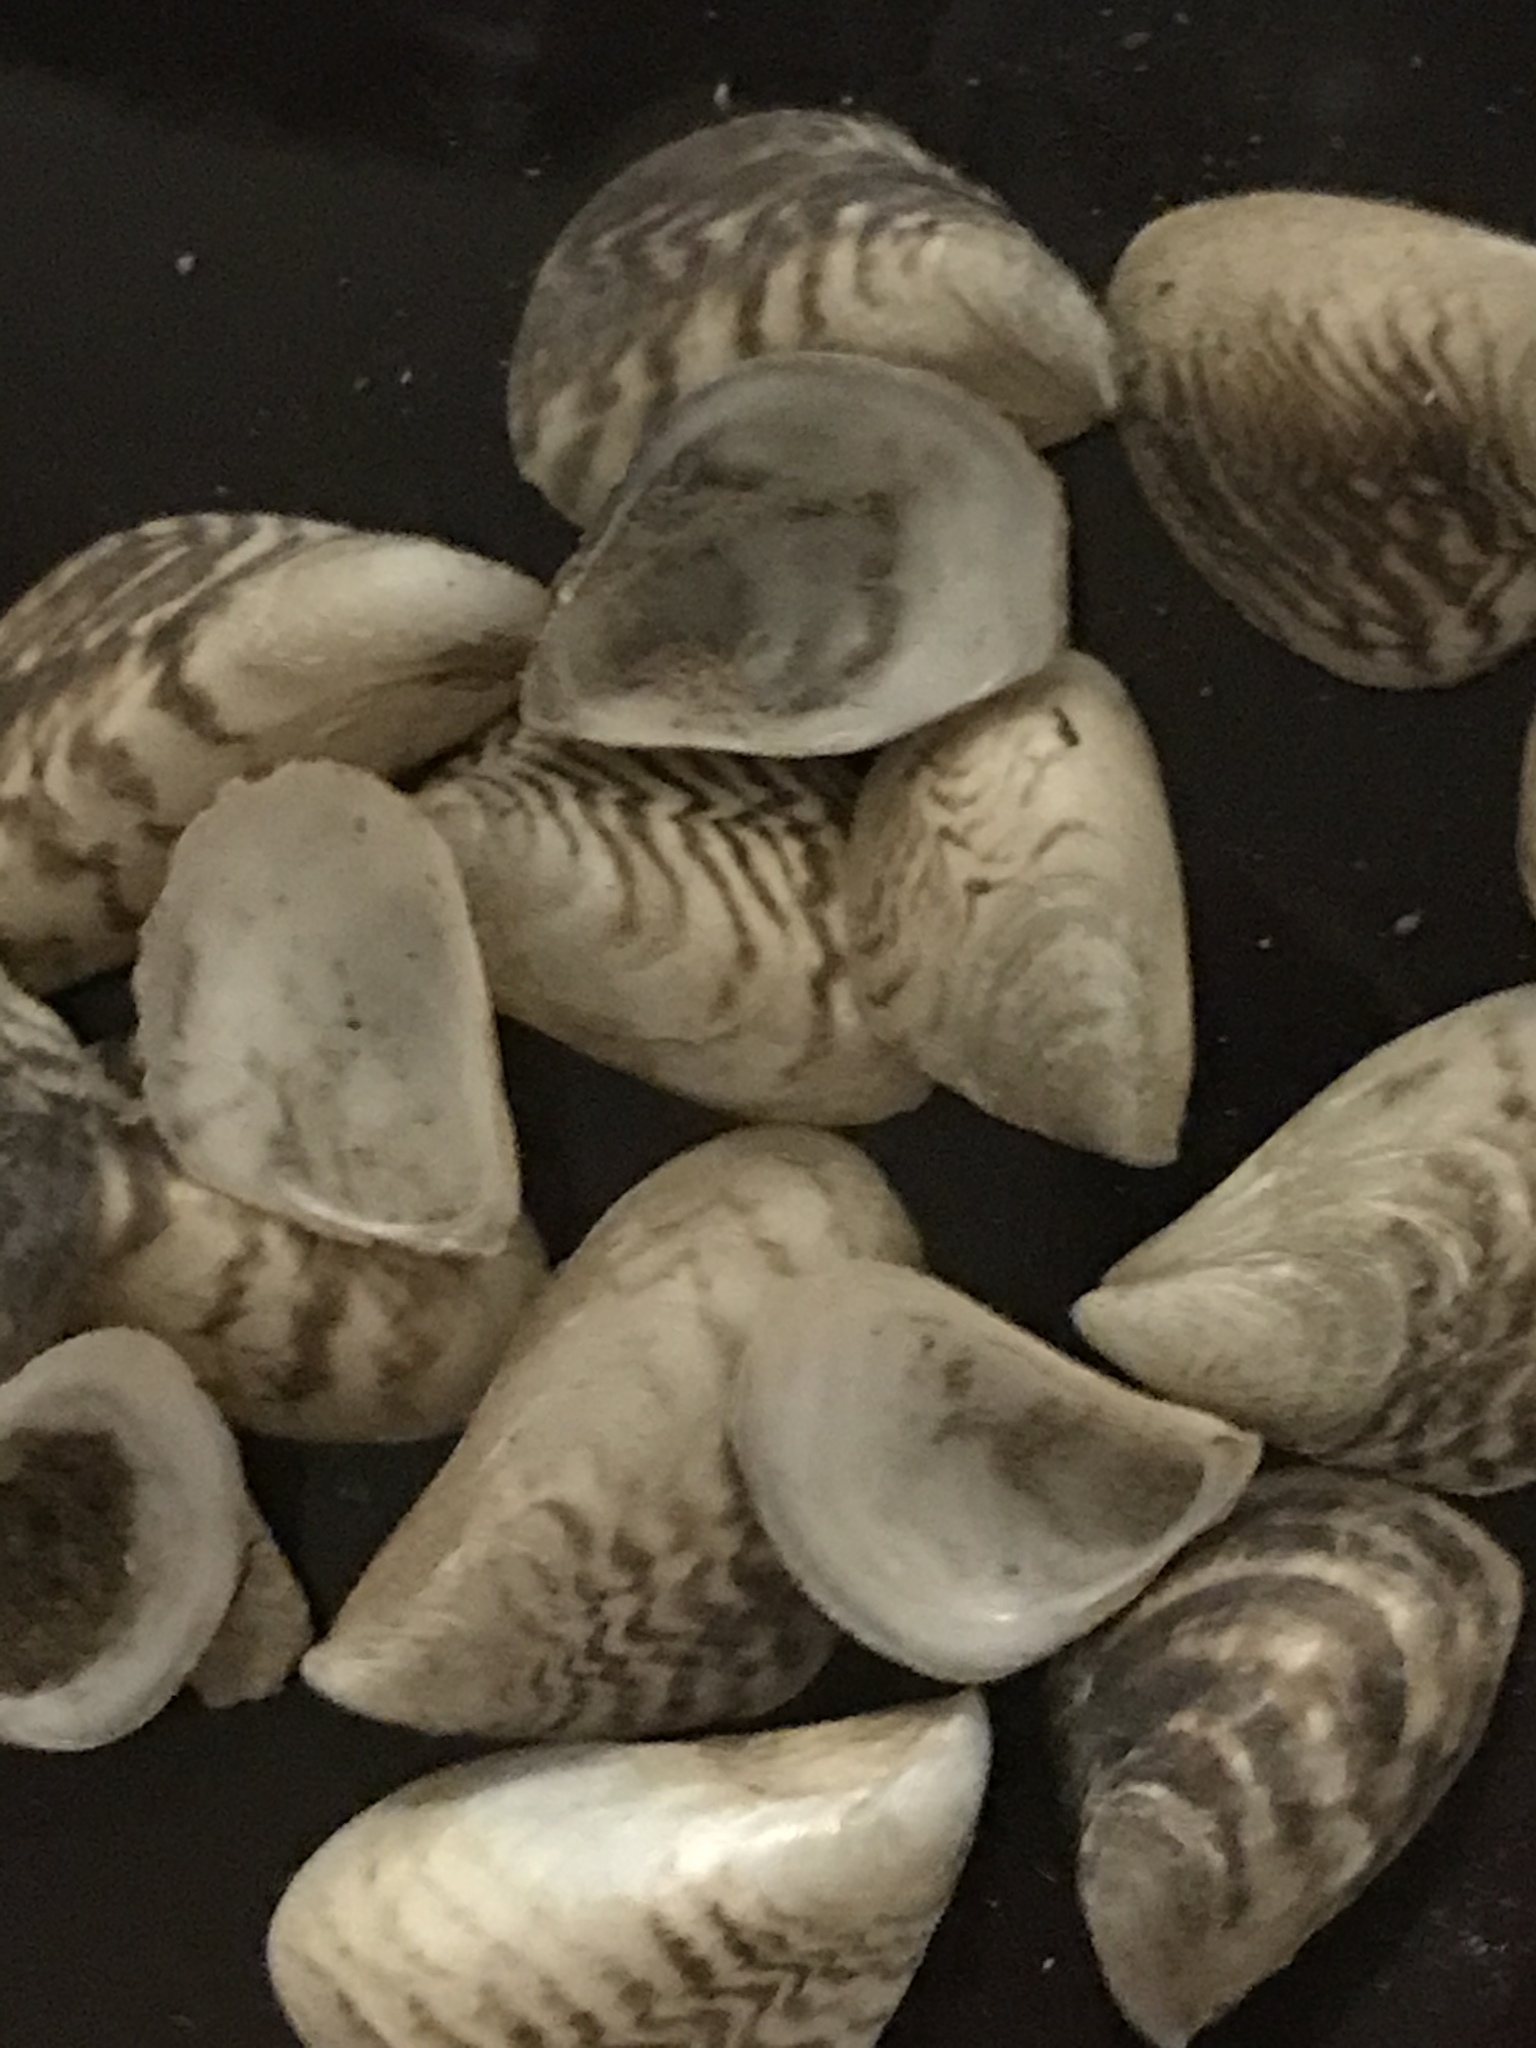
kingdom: Animalia
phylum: Mollusca
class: Bivalvia
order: Myida
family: Dreissenidae
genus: Dreissena
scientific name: Dreissena bugensis
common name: Quagga mussel
